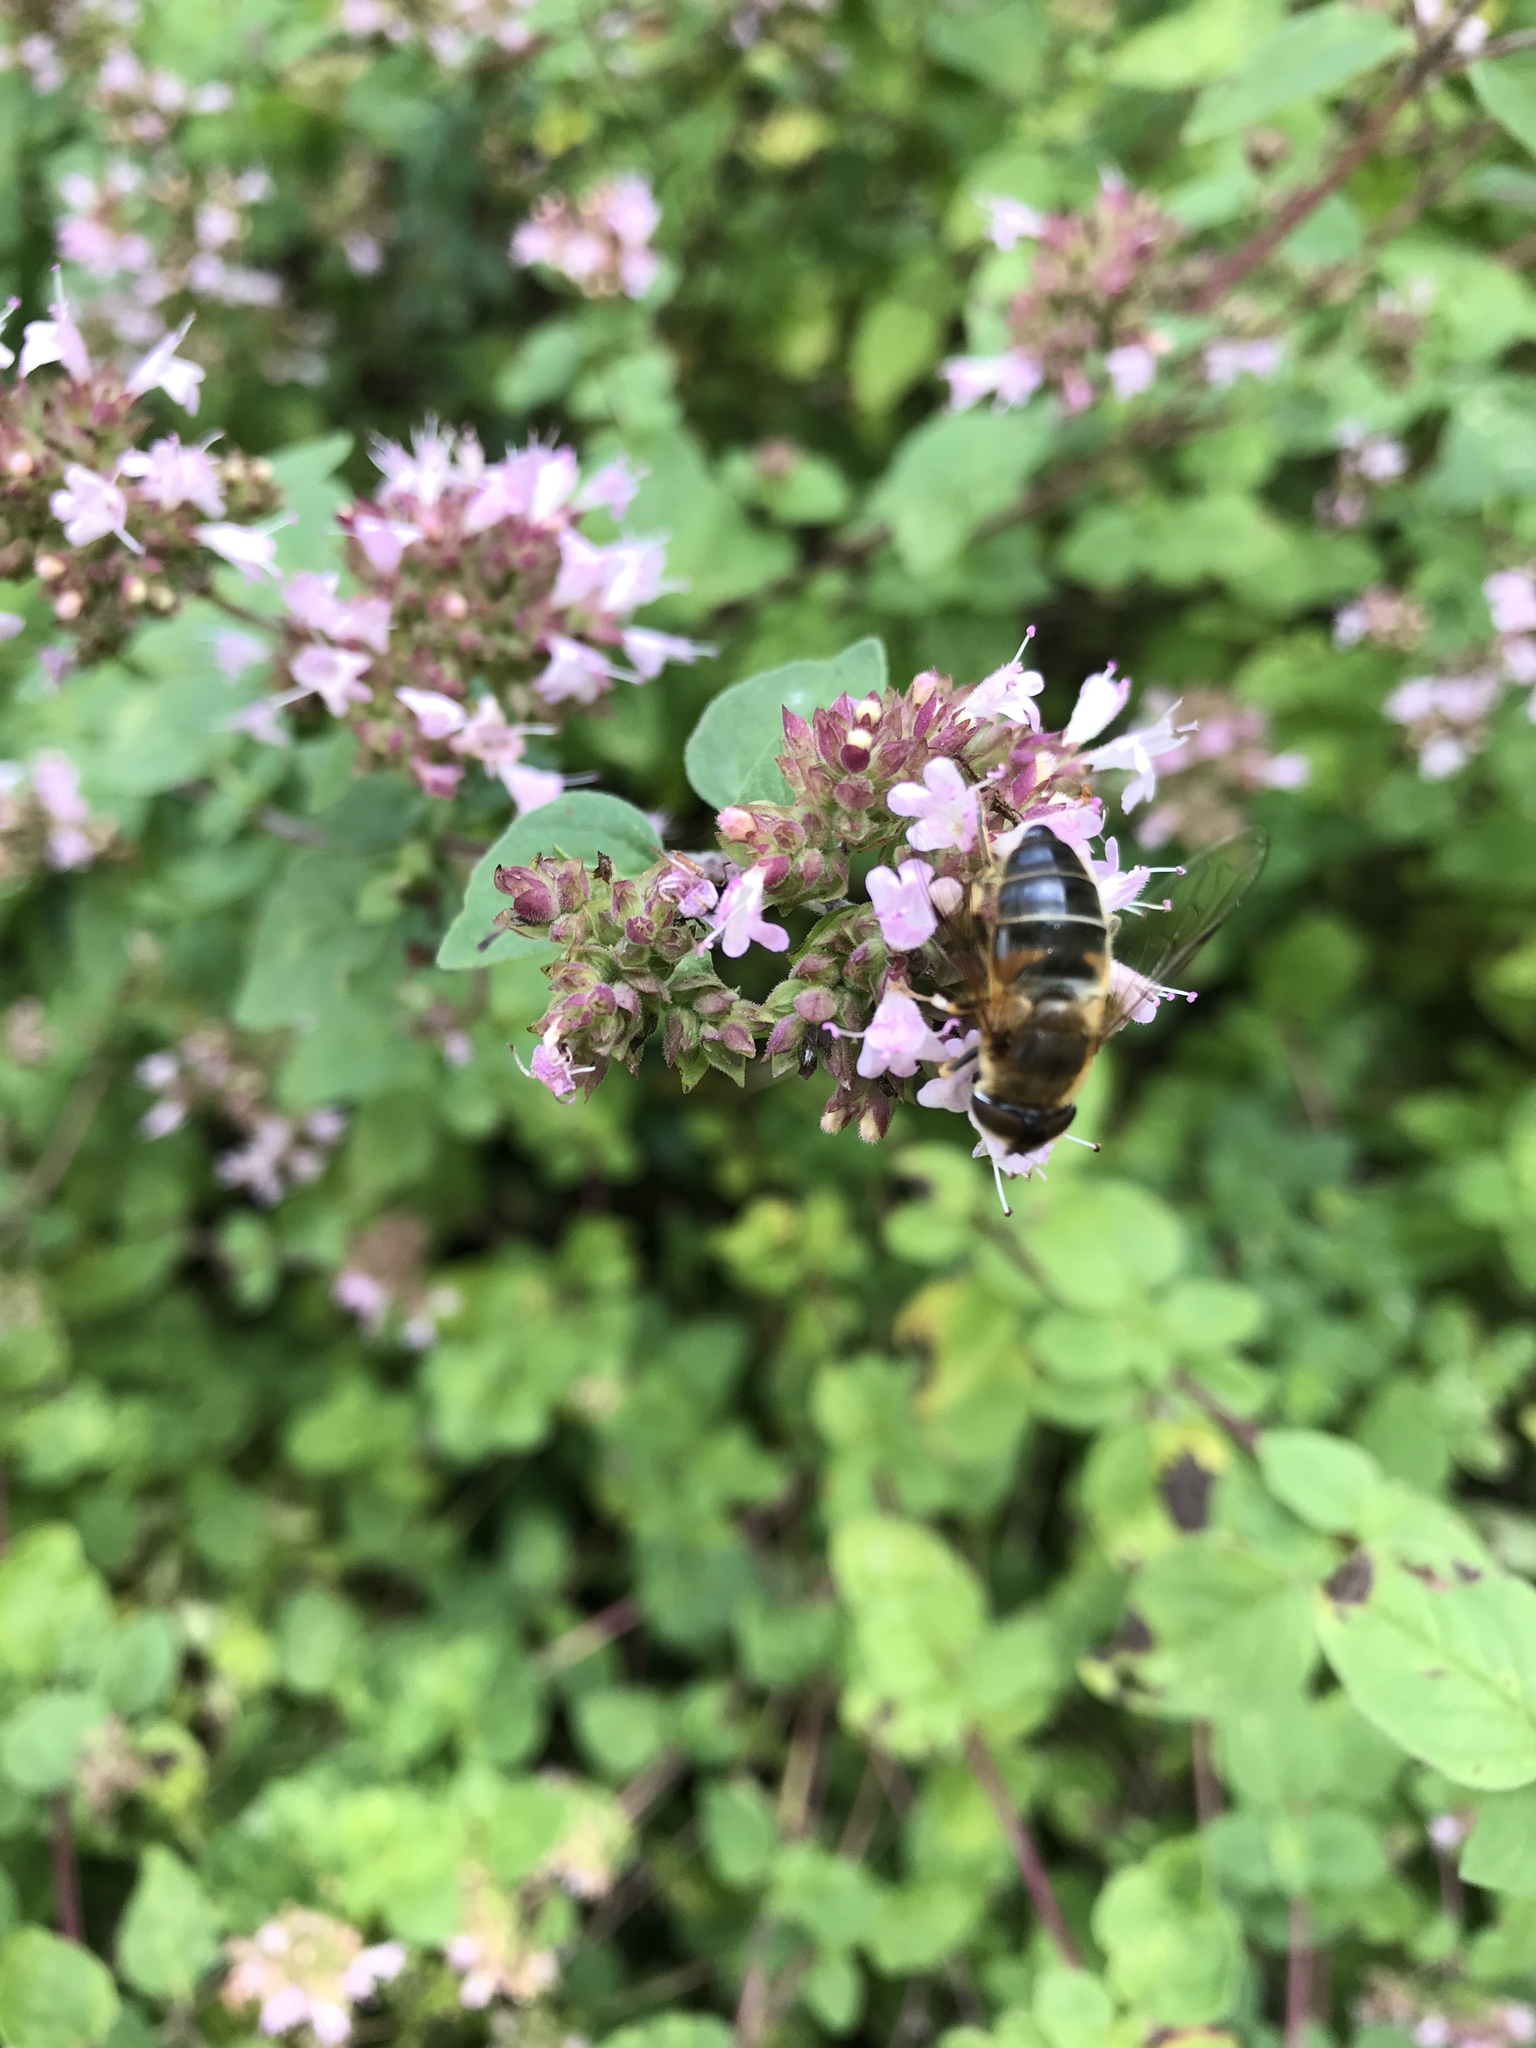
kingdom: Animalia
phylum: Arthropoda
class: Insecta
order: Diptera
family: Syrphidae
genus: Eristalis
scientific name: Eristalis pertinax
